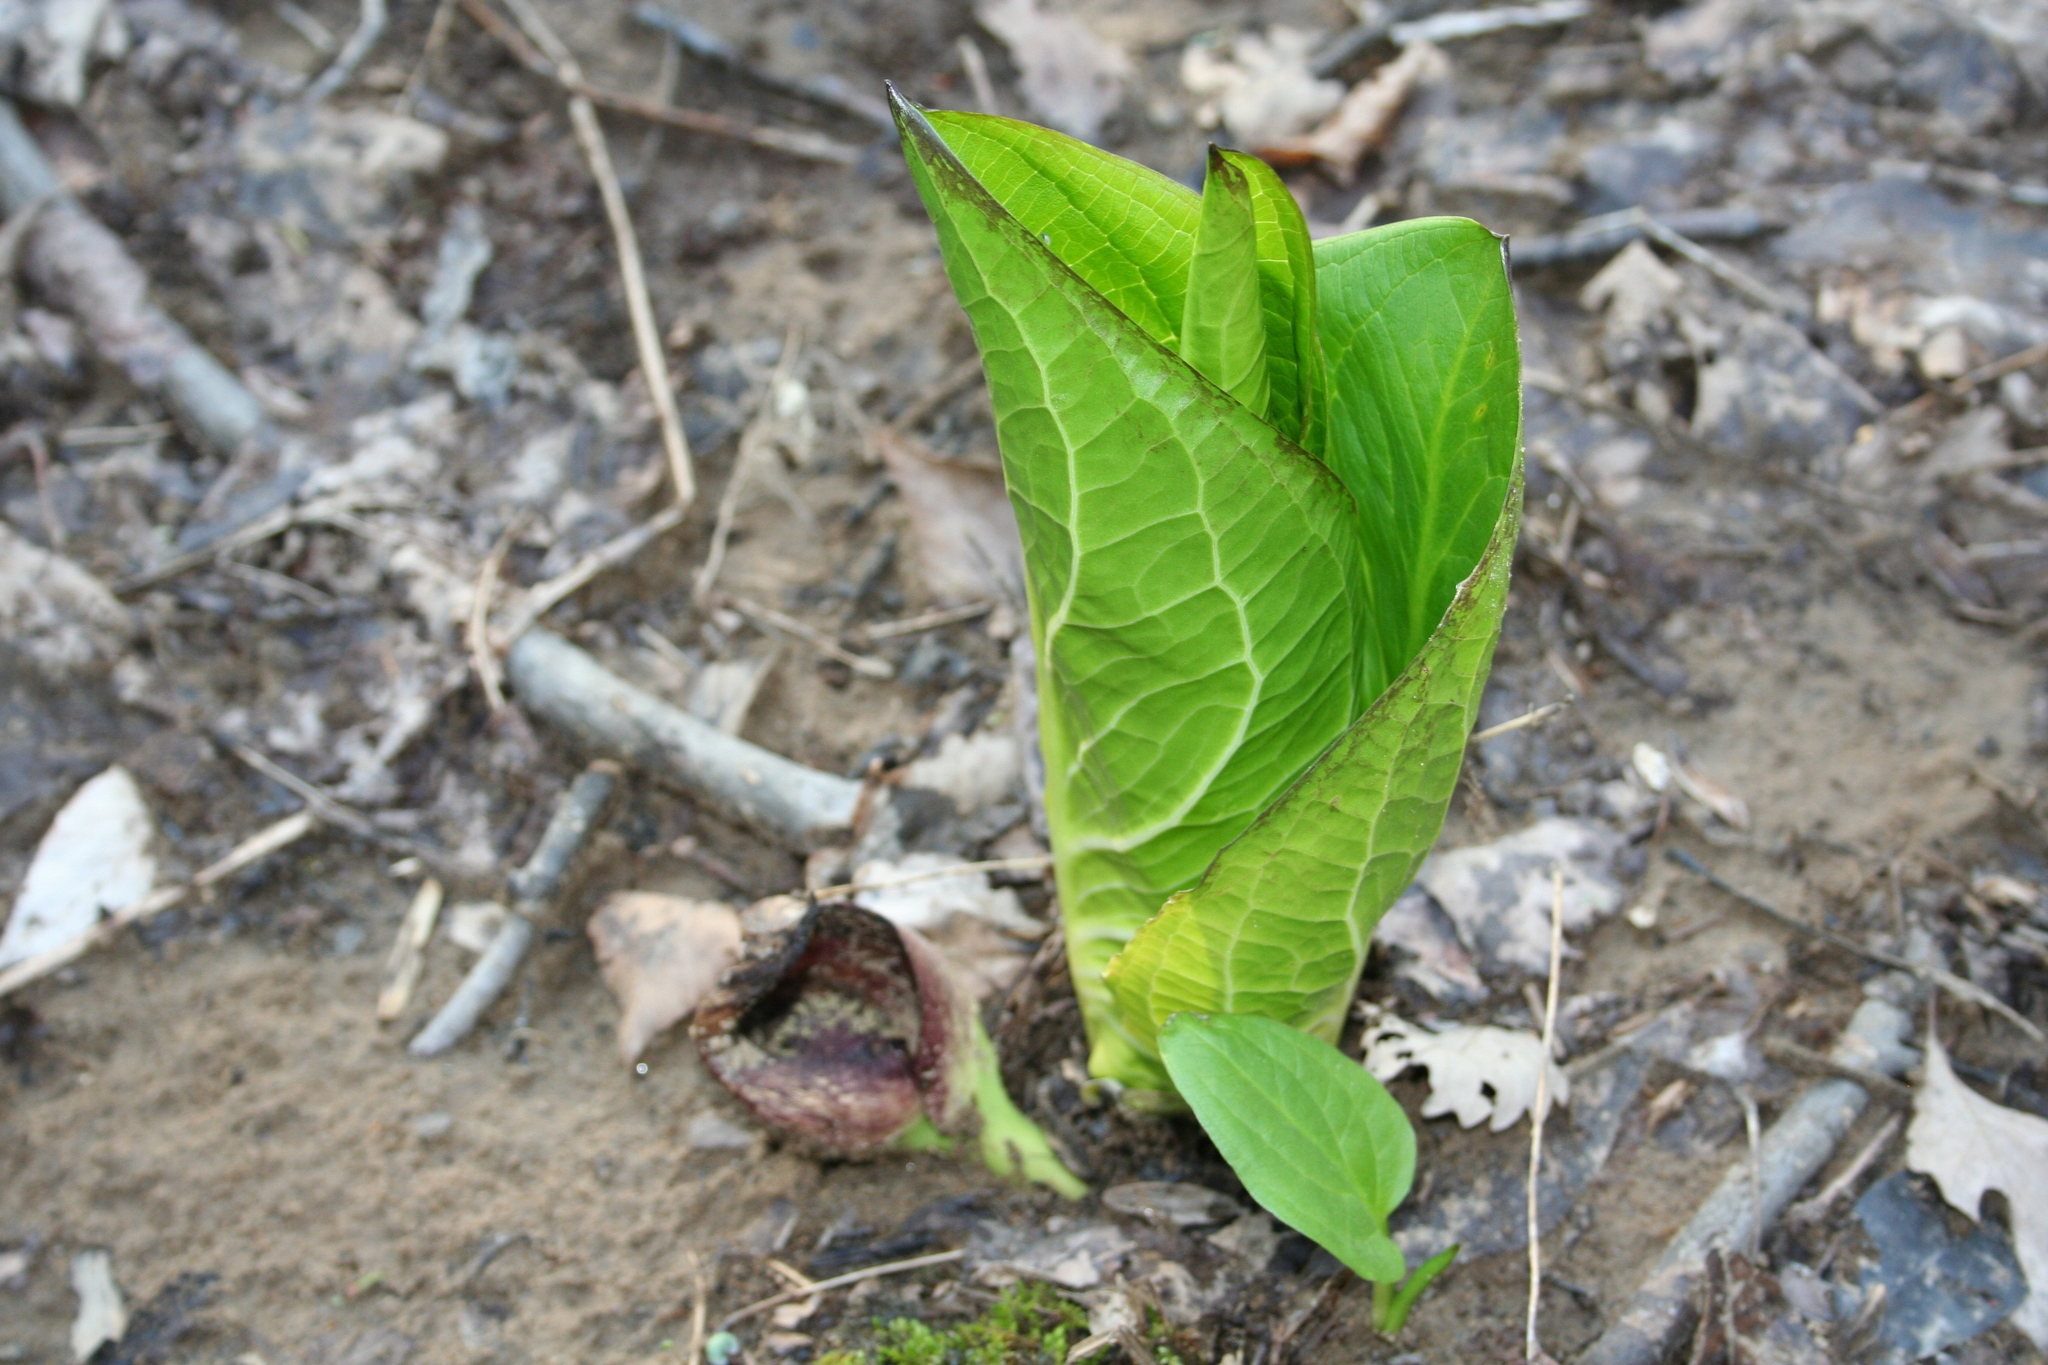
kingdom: Plantae
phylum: Tracheophyta
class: Liliopsida
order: Alismatales
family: Araceae
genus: Symplocarpus
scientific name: Symplocarpus foetidus
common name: Eastern skunk cabbage
